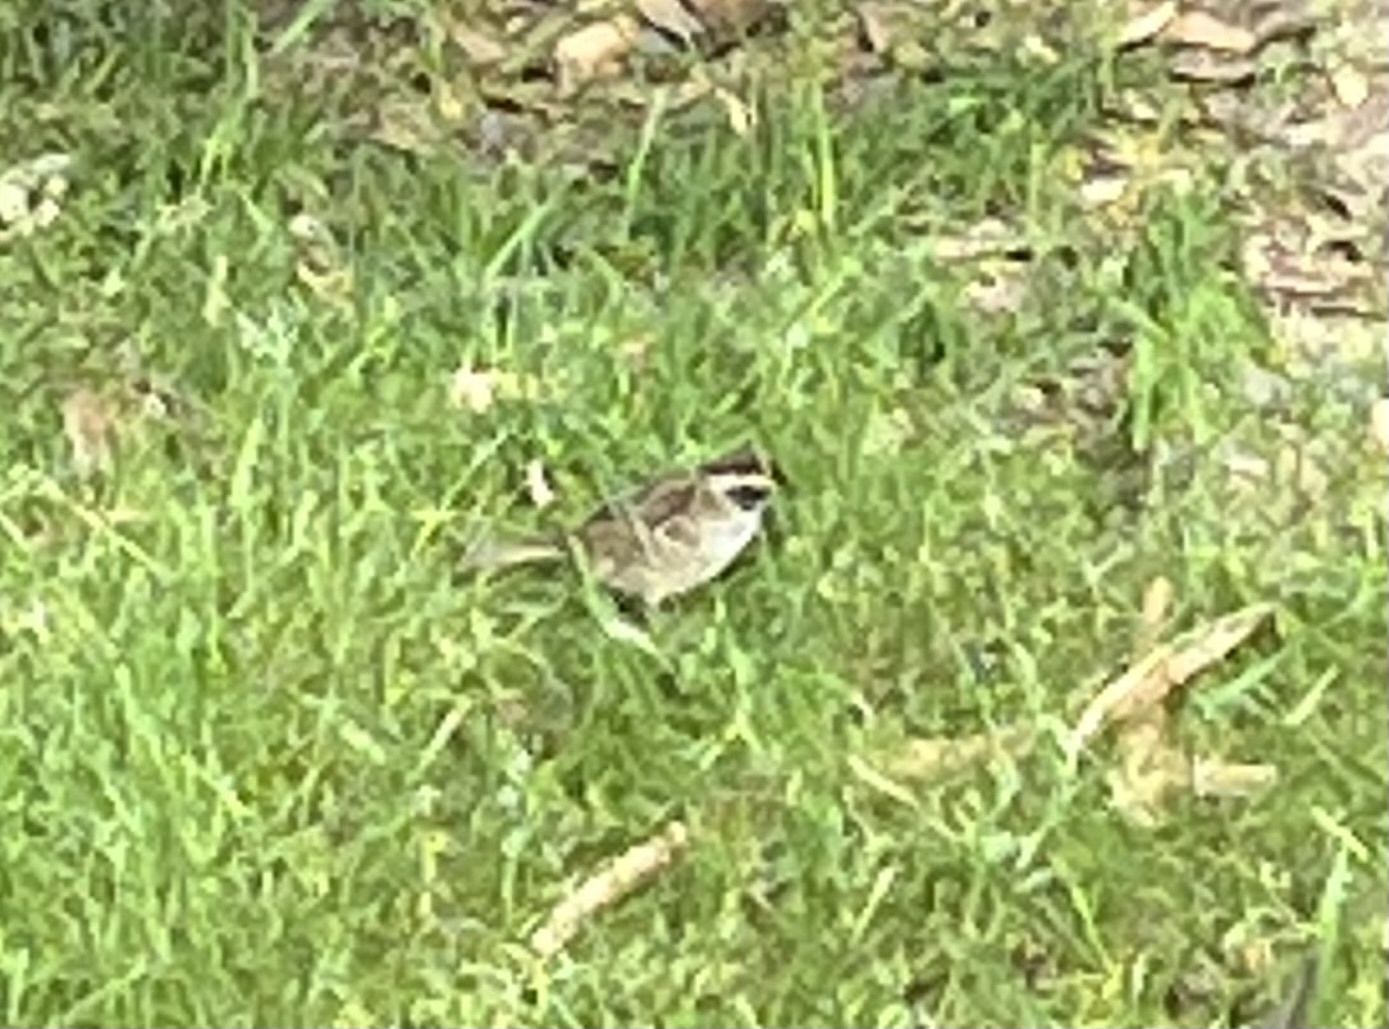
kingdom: Animalia
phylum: Chordata
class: Aves
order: Passeriformes
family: Passerellidae
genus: Oriturus
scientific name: Oriturus superciliosus
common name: Striped sparrow
